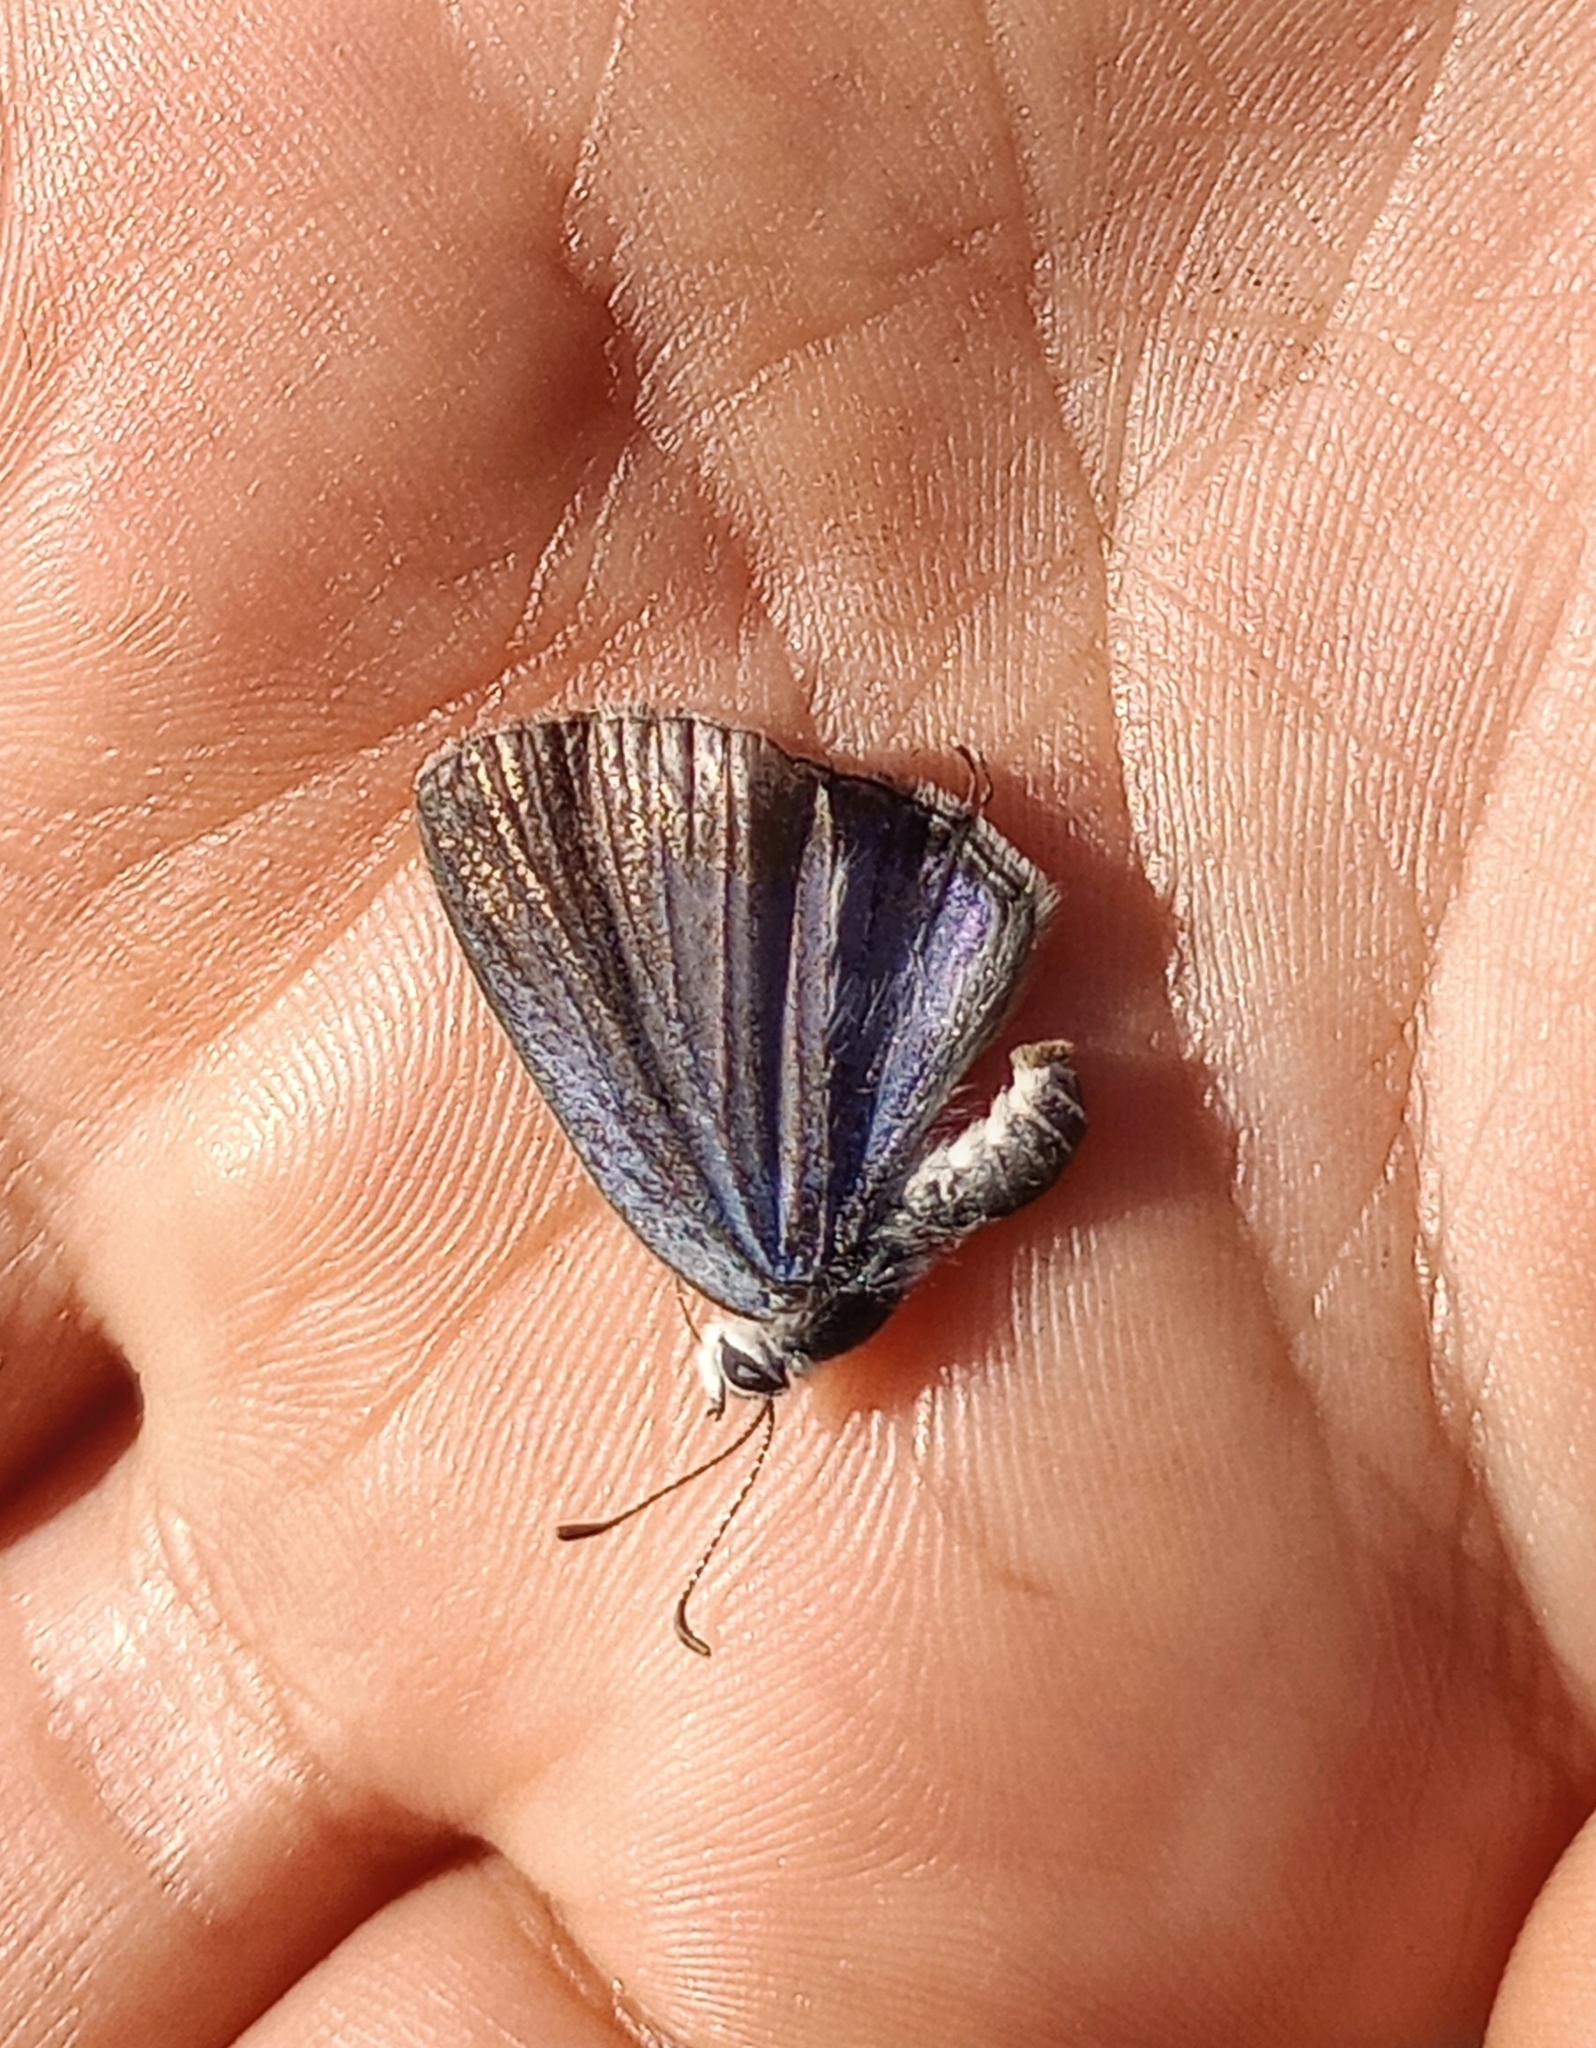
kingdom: Animalia
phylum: Arthropoda
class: Insecta
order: Lepidoptera
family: Lycaenidae
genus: Luthrodes
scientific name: Luthrodes pandava
